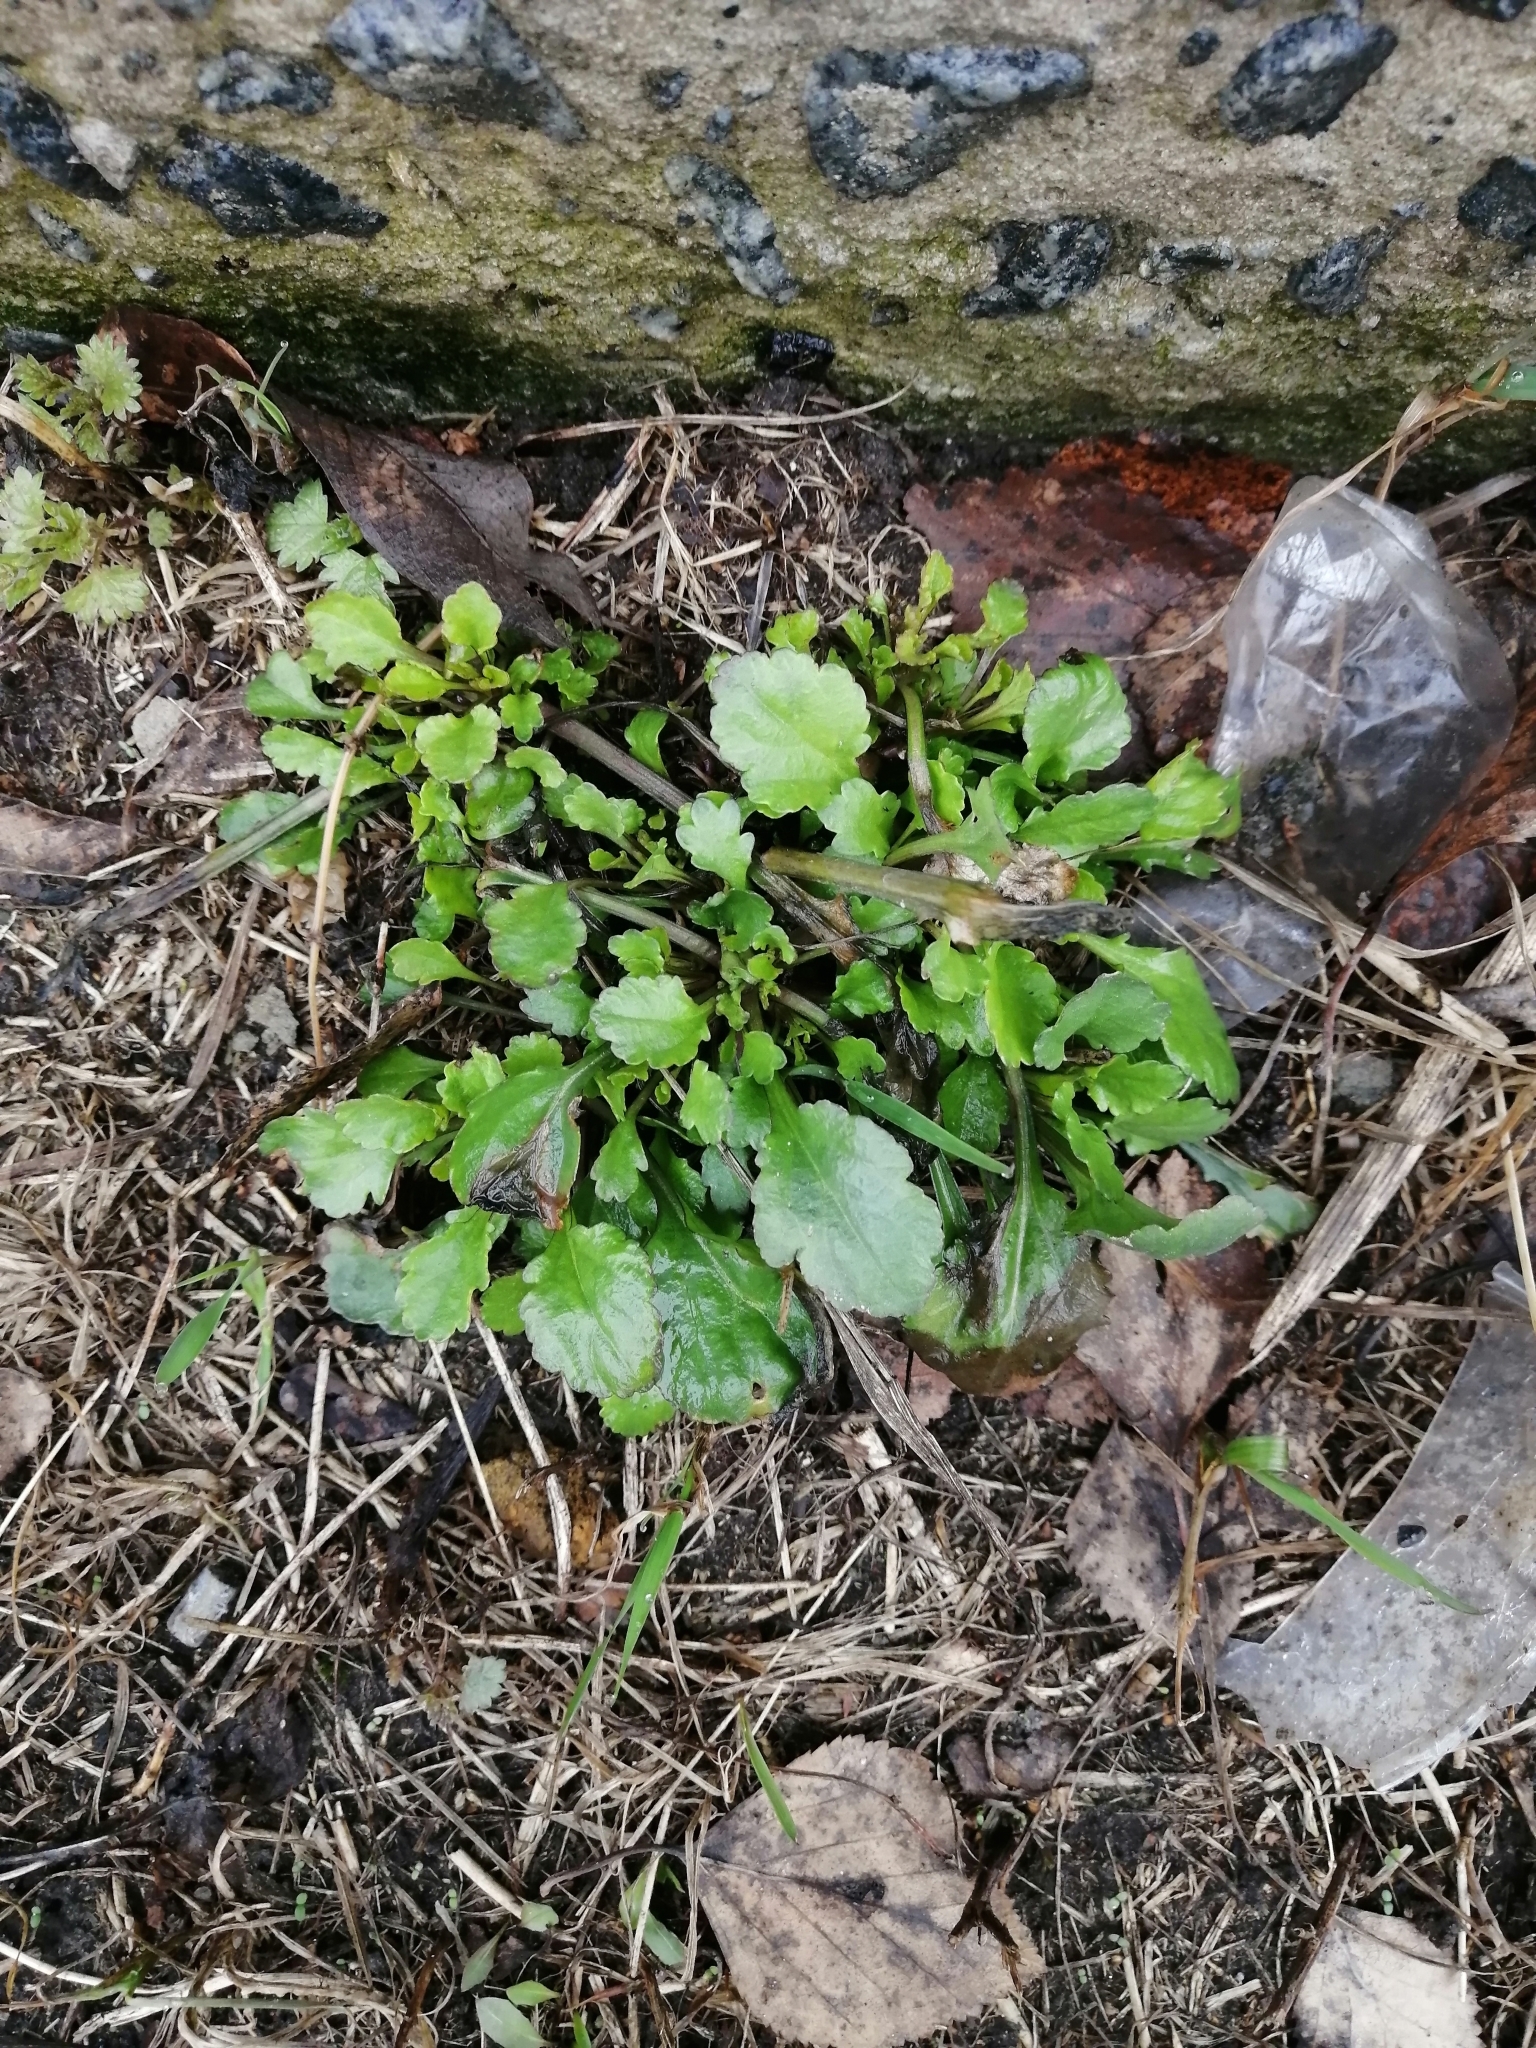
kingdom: Plantae
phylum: Tracheophyta
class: Magnoliopsida
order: Asterales
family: Asteraceae
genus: Leucanthemum
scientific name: Leucanthemum ircutianum
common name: Daisy
